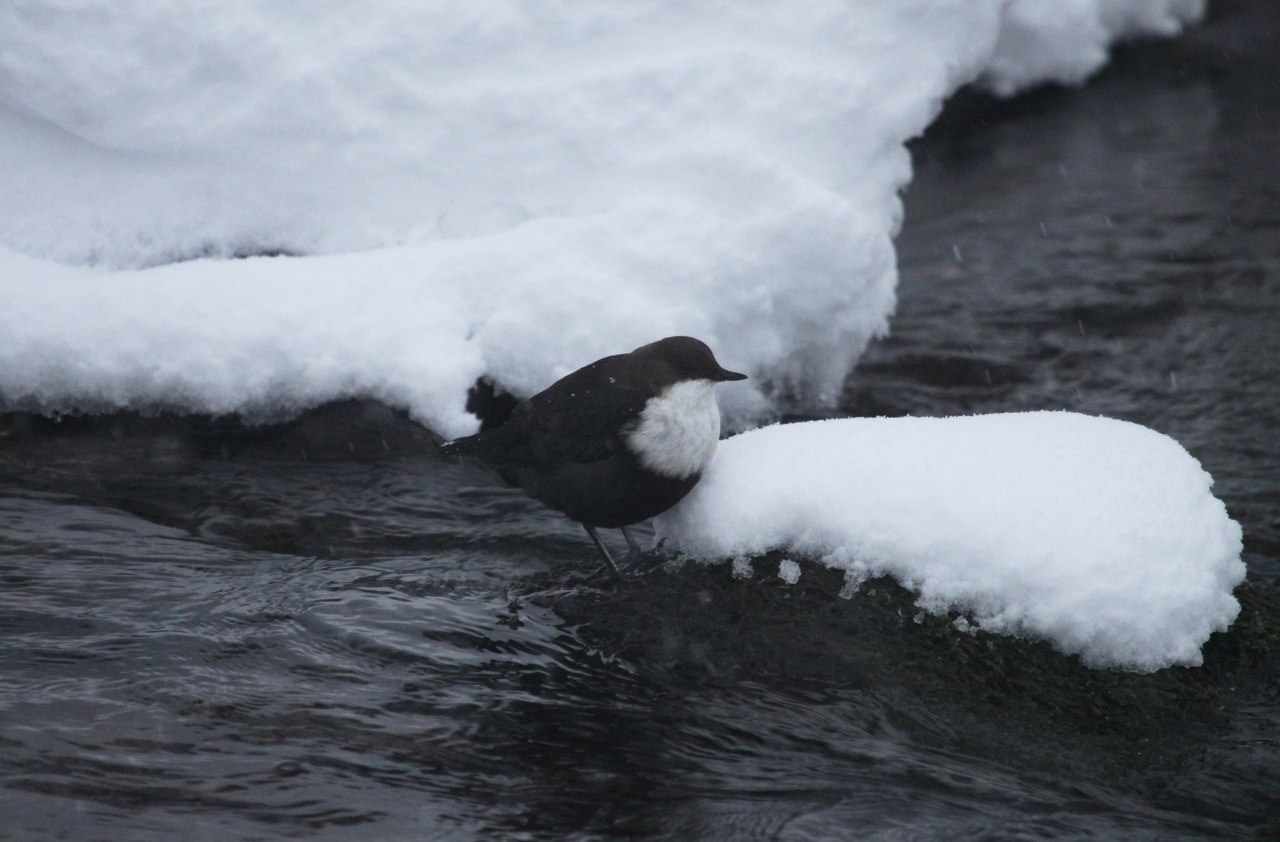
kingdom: Animalia
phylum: Chordata
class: Aves
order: Passeriformes
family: Cinclidae
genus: Cinclus
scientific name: Cinclus cinclus
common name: White-throated dipper
